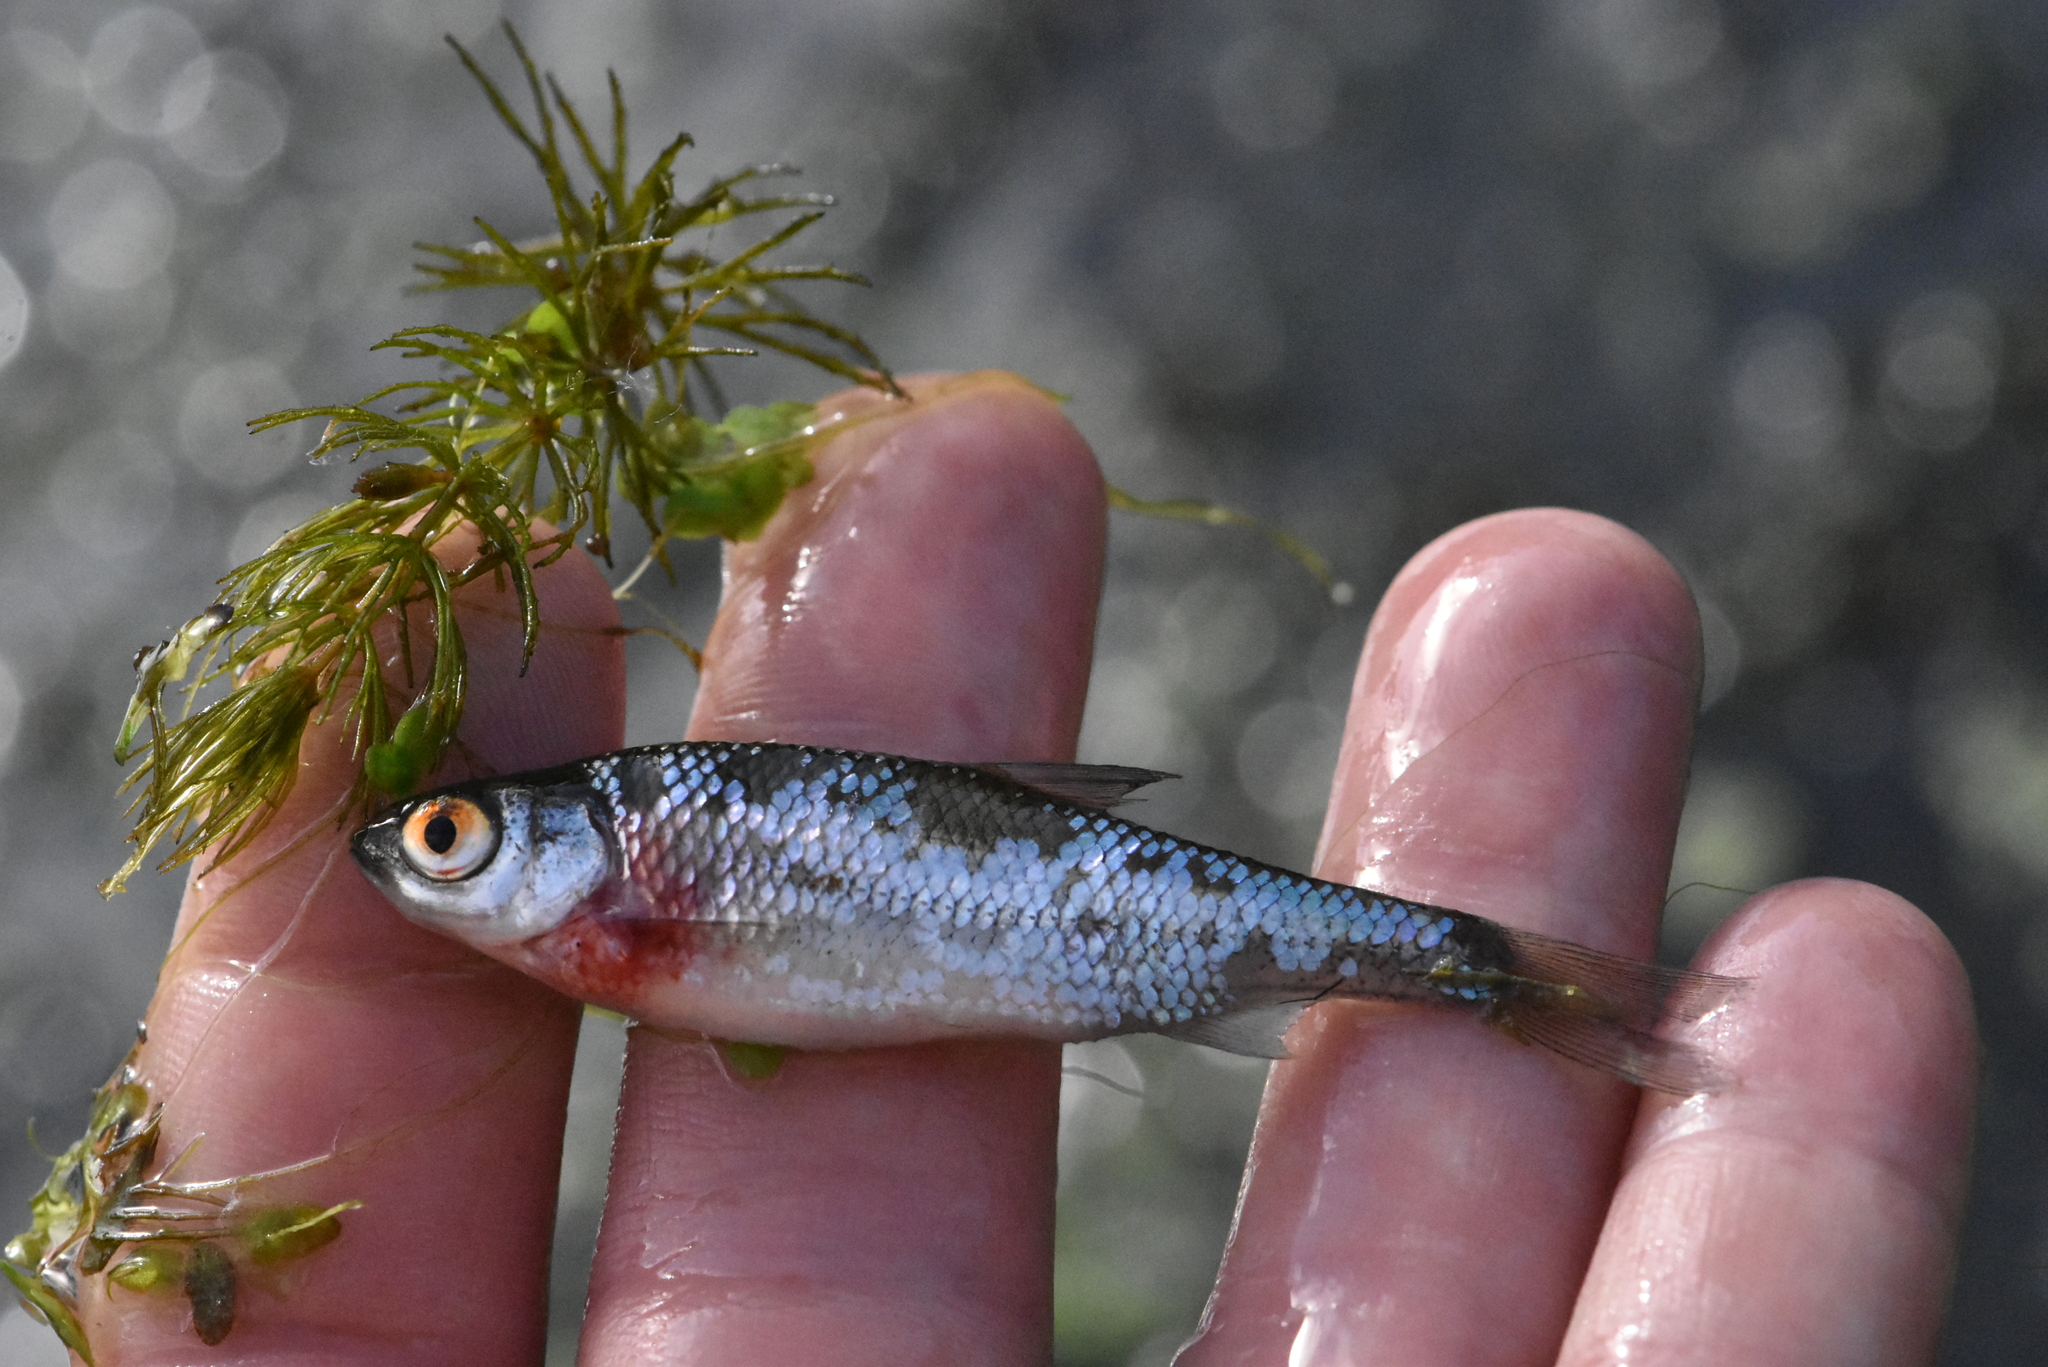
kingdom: Animalia
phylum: Chordata
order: Cypriniformes
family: Cyprinidae
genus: Rutilus
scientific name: Rutilus rutilus
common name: Roach
